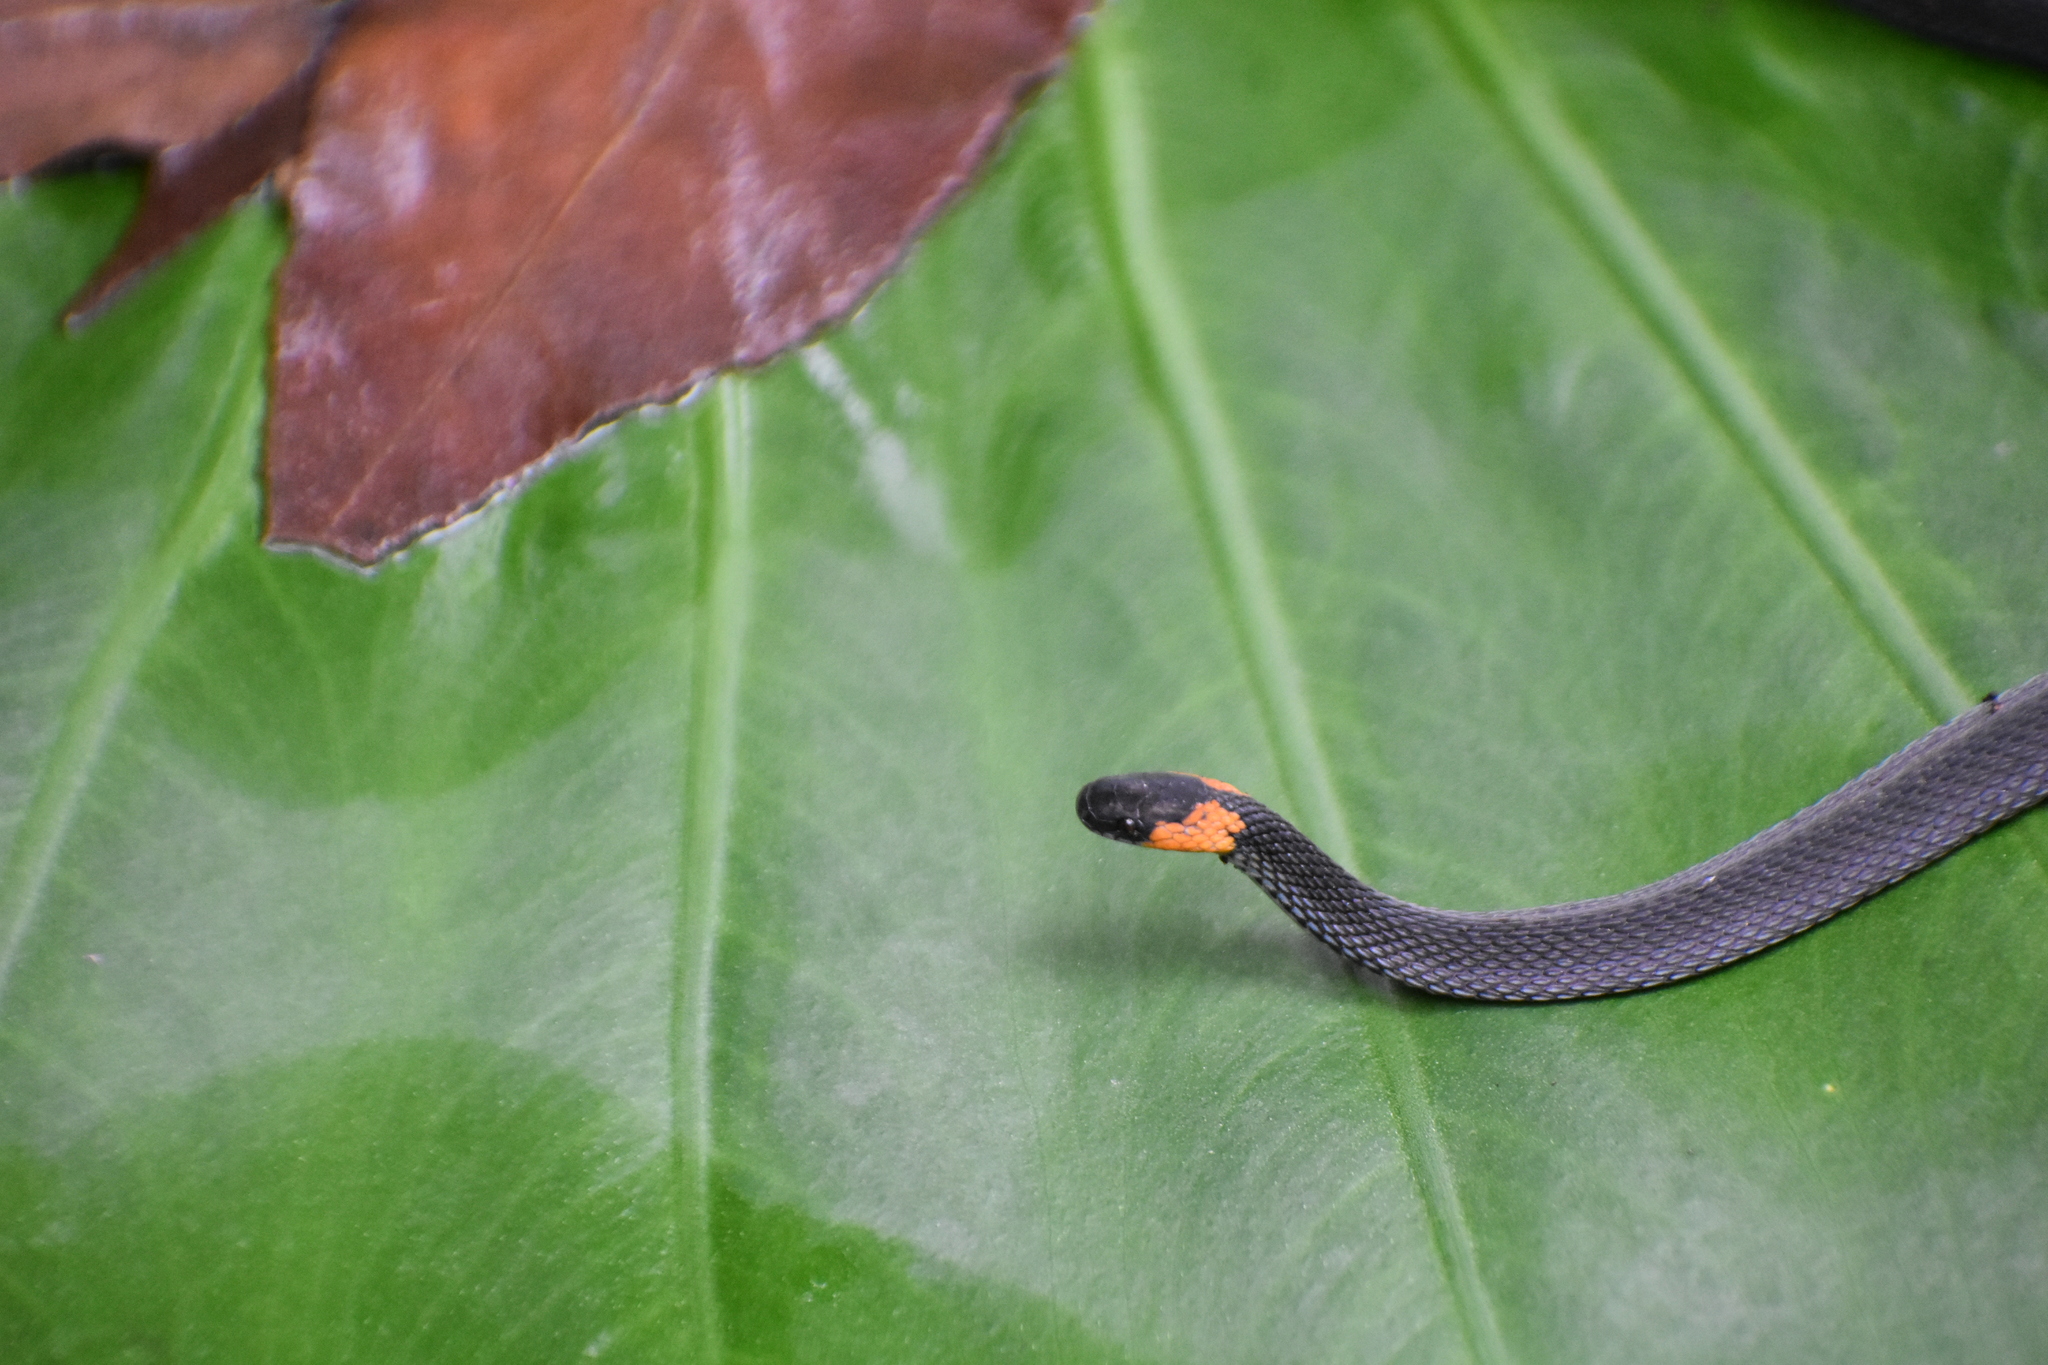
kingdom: Animalia
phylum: Chordata
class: Squamata
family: Colubridae
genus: Ninia
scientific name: Ninia diademata
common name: Ringneck coffee snake
